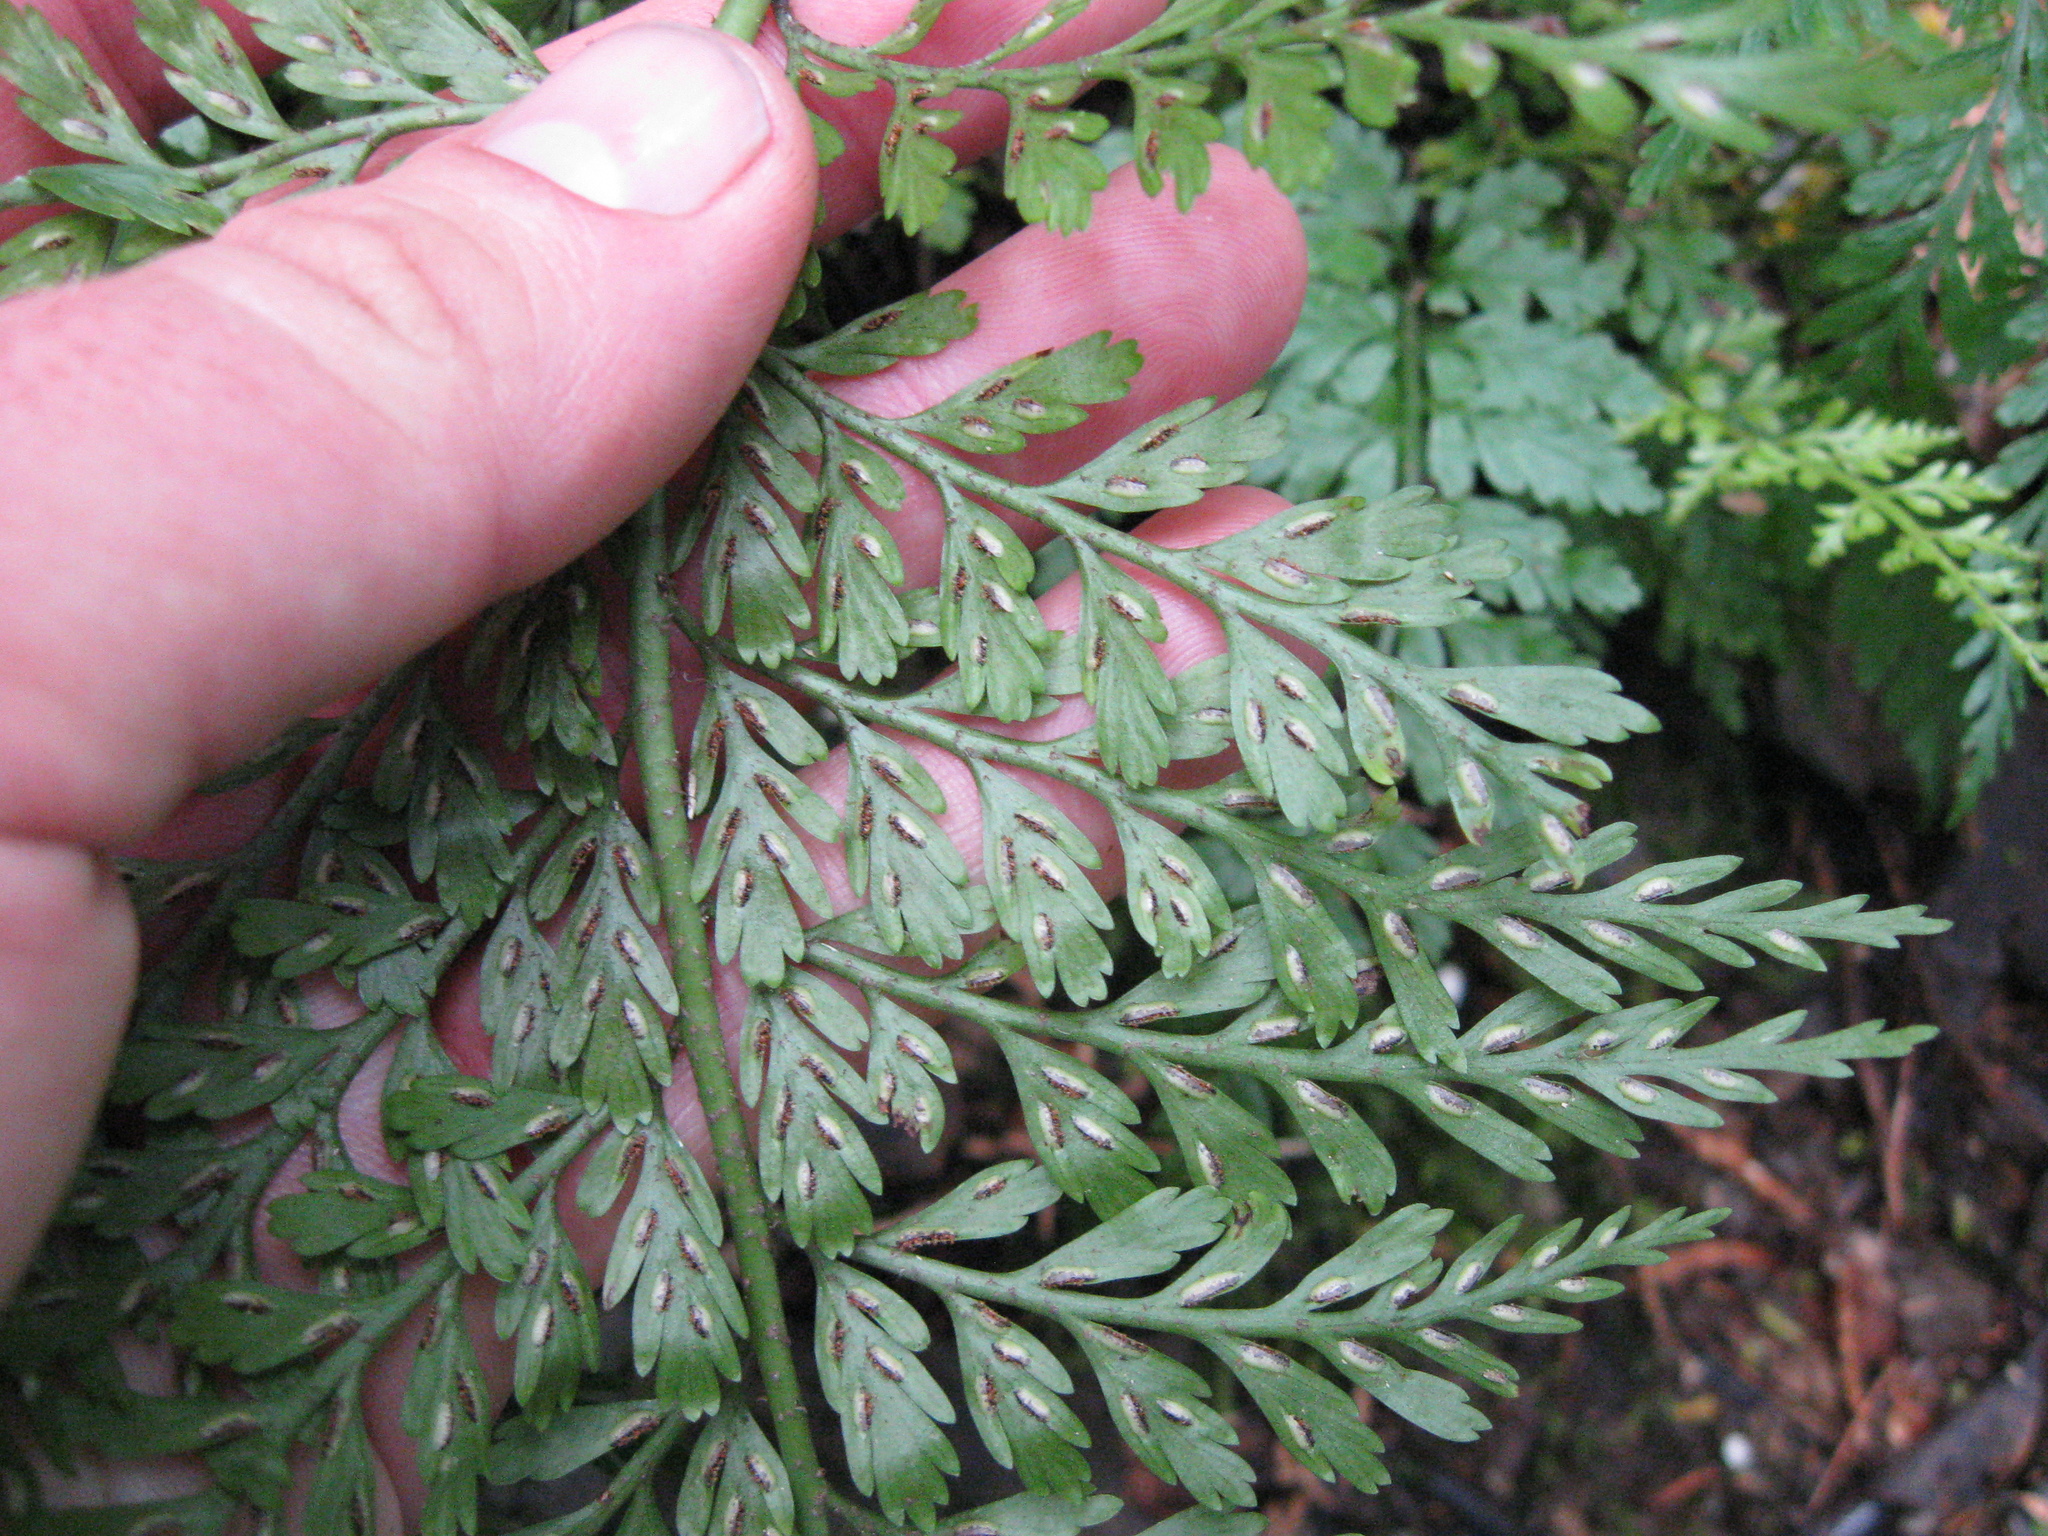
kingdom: Plantae
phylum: Tracheophyta
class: Polypodiopsida
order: Polypodiales
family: Aspleniaceae
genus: Asplenium
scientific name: Asplenium
